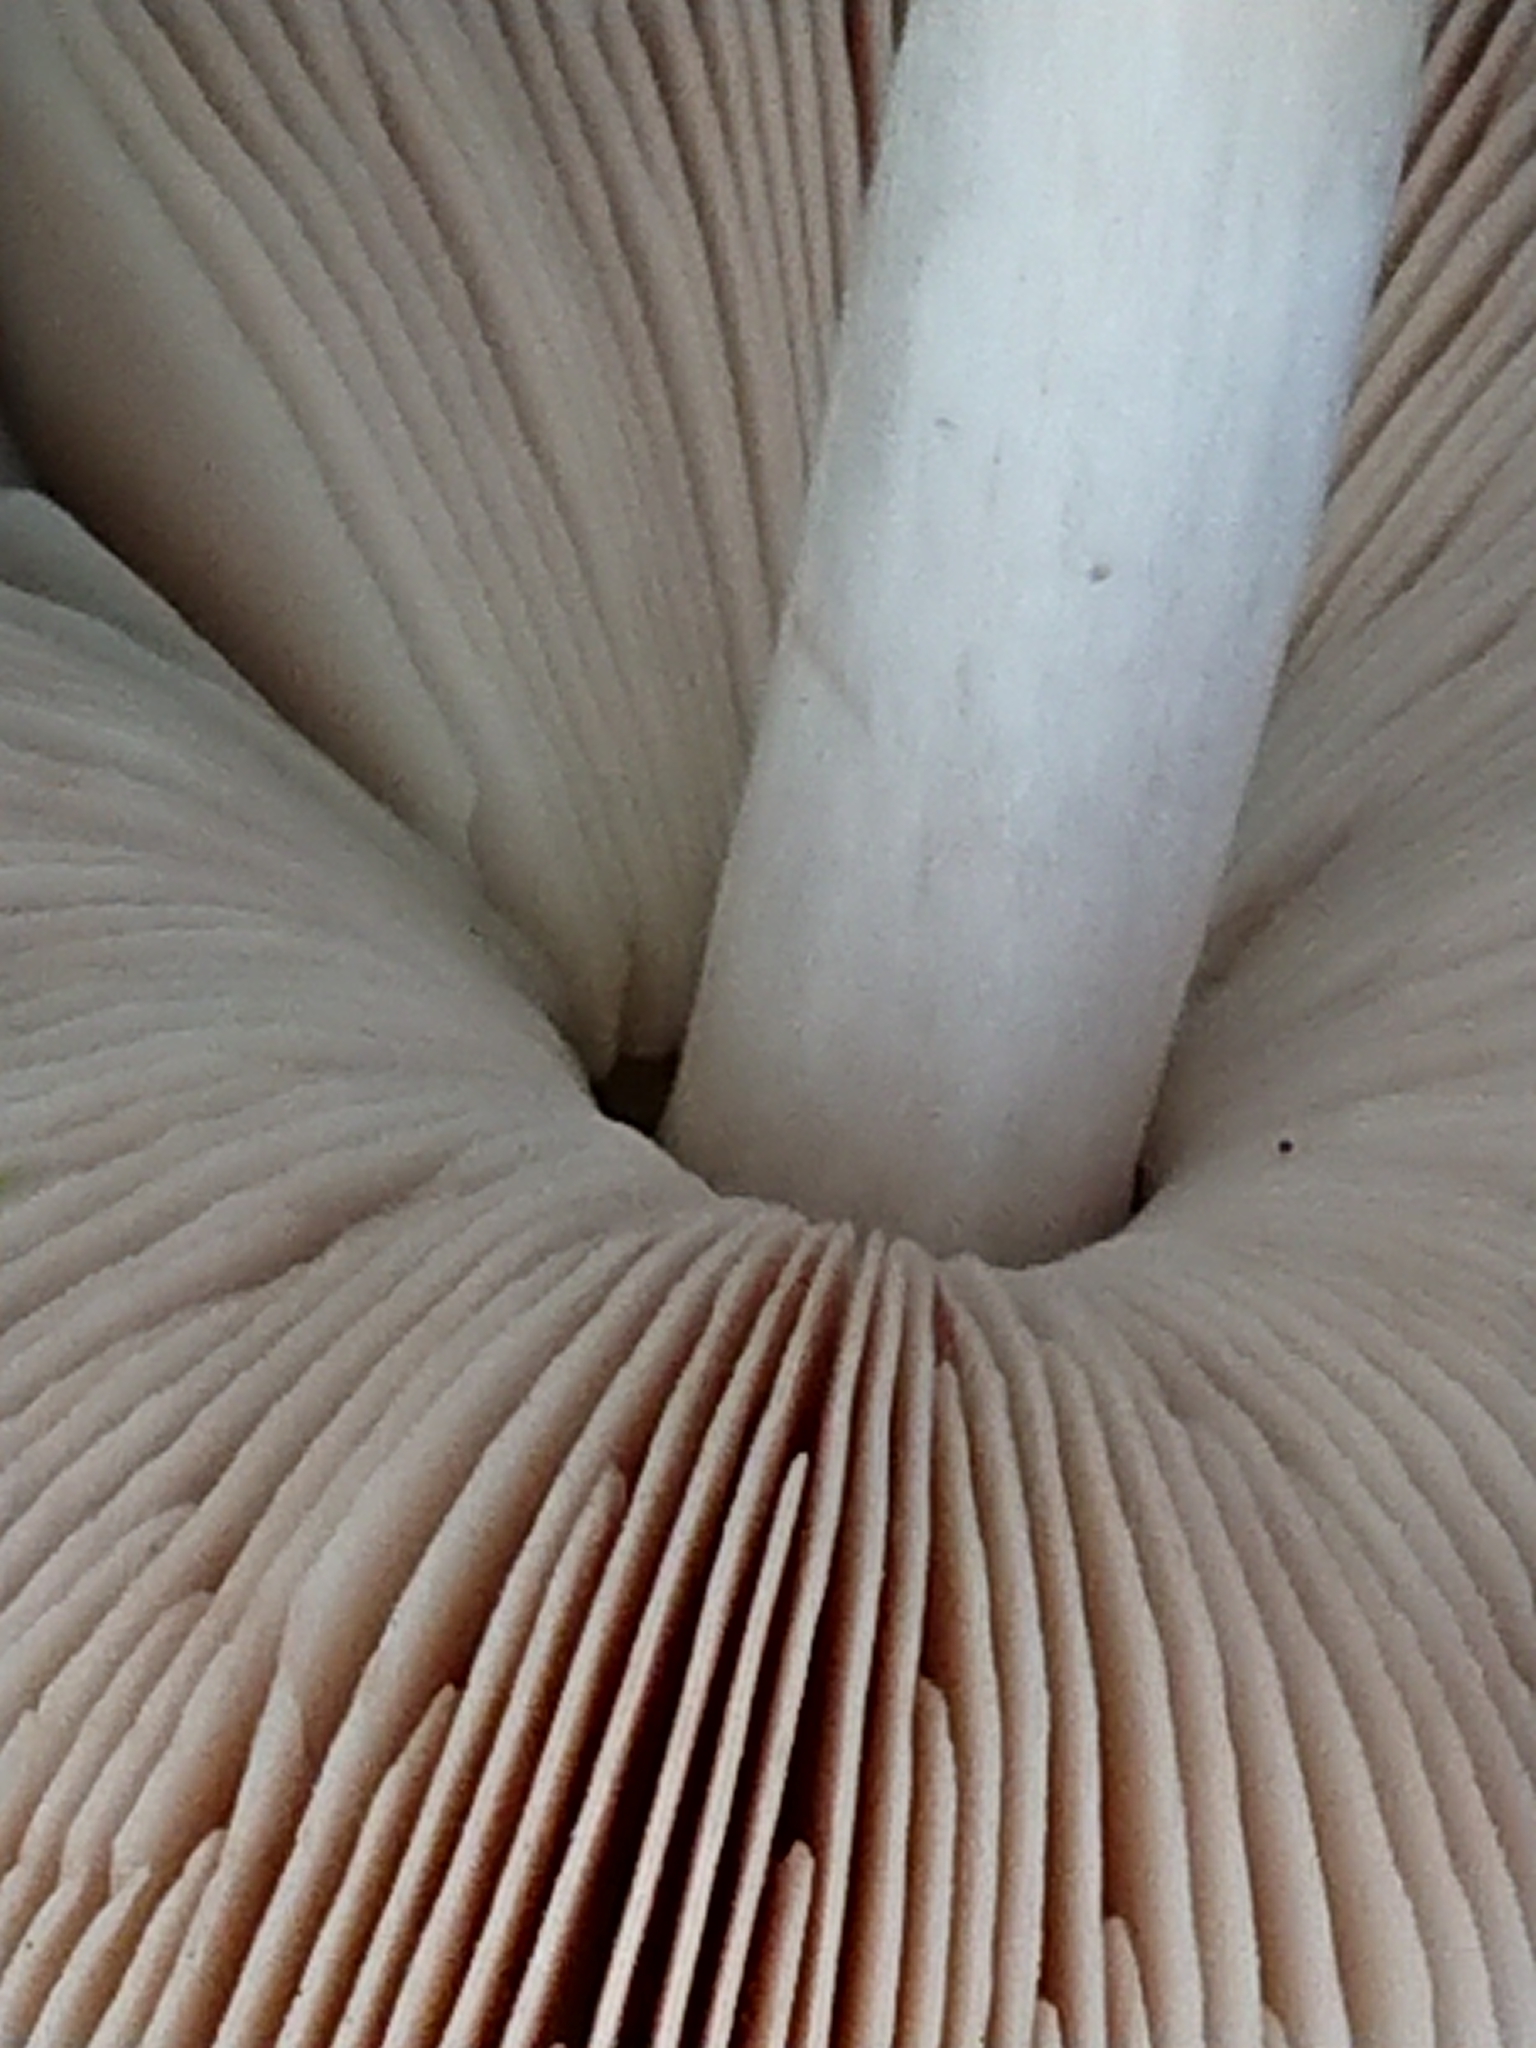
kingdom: Fungi
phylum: Basidiomycota
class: Agaricomycetes
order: Agaricales
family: Pluteaceae
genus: Volvopluteus
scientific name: Volvopluteus gloiocephalus
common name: Stubble rosegill
